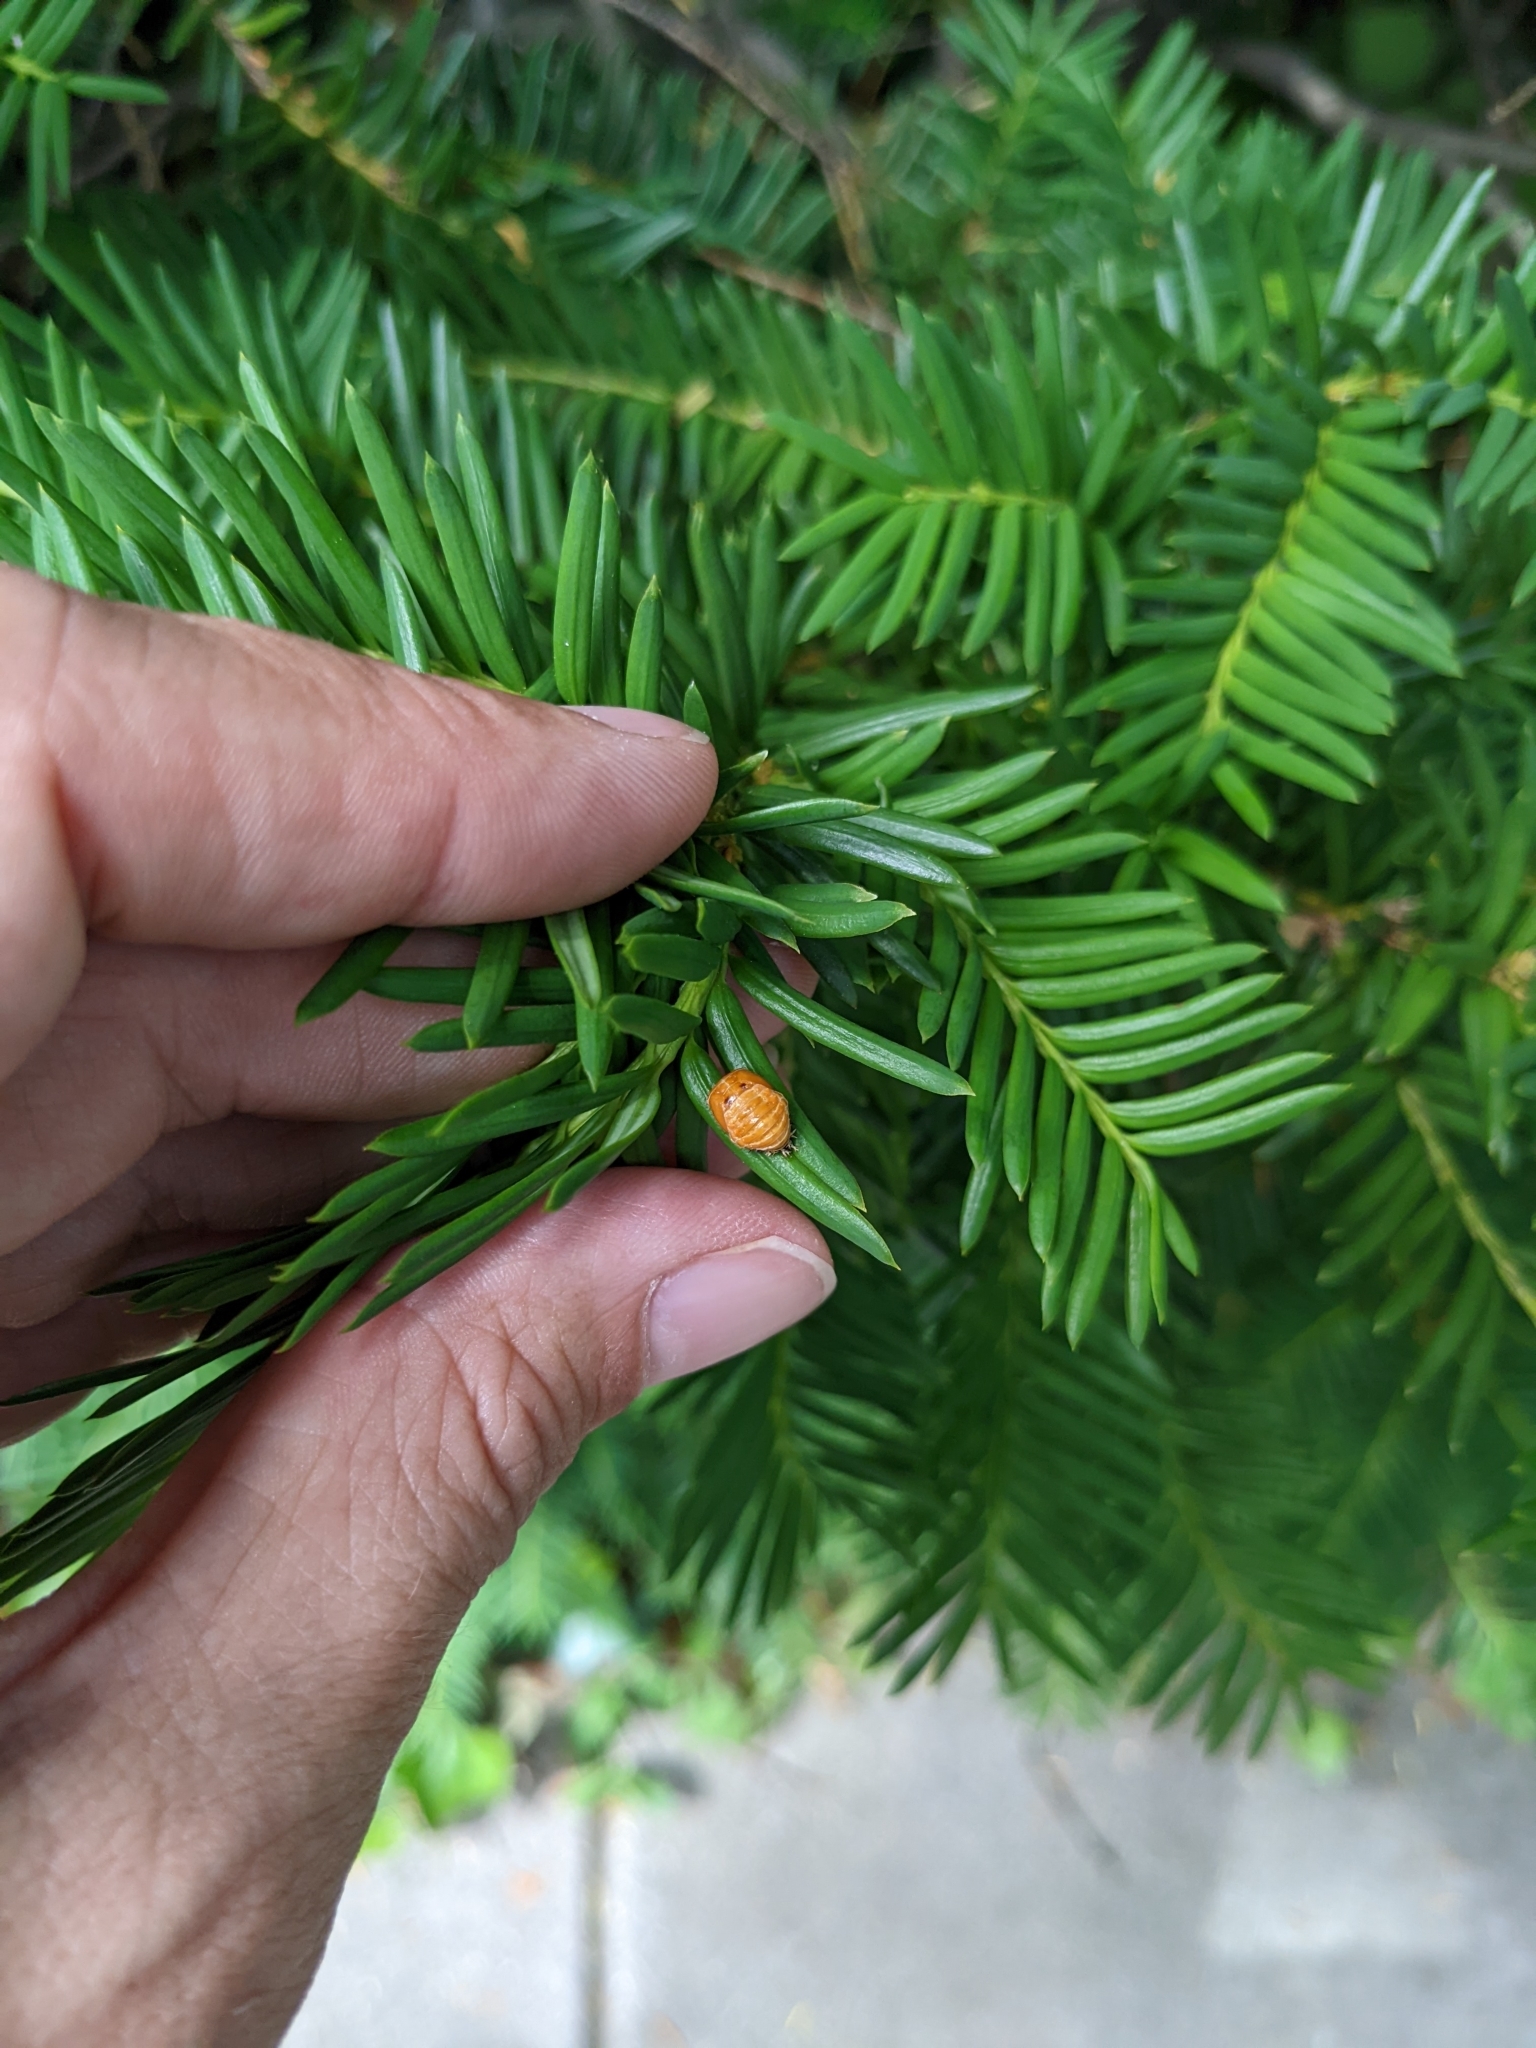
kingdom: Animalia
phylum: Arthropoda
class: Insecta
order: Coleoptera
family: Coccinellidae
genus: Harmonia
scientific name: Harmonia axyridis
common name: Harlequin ladybird
